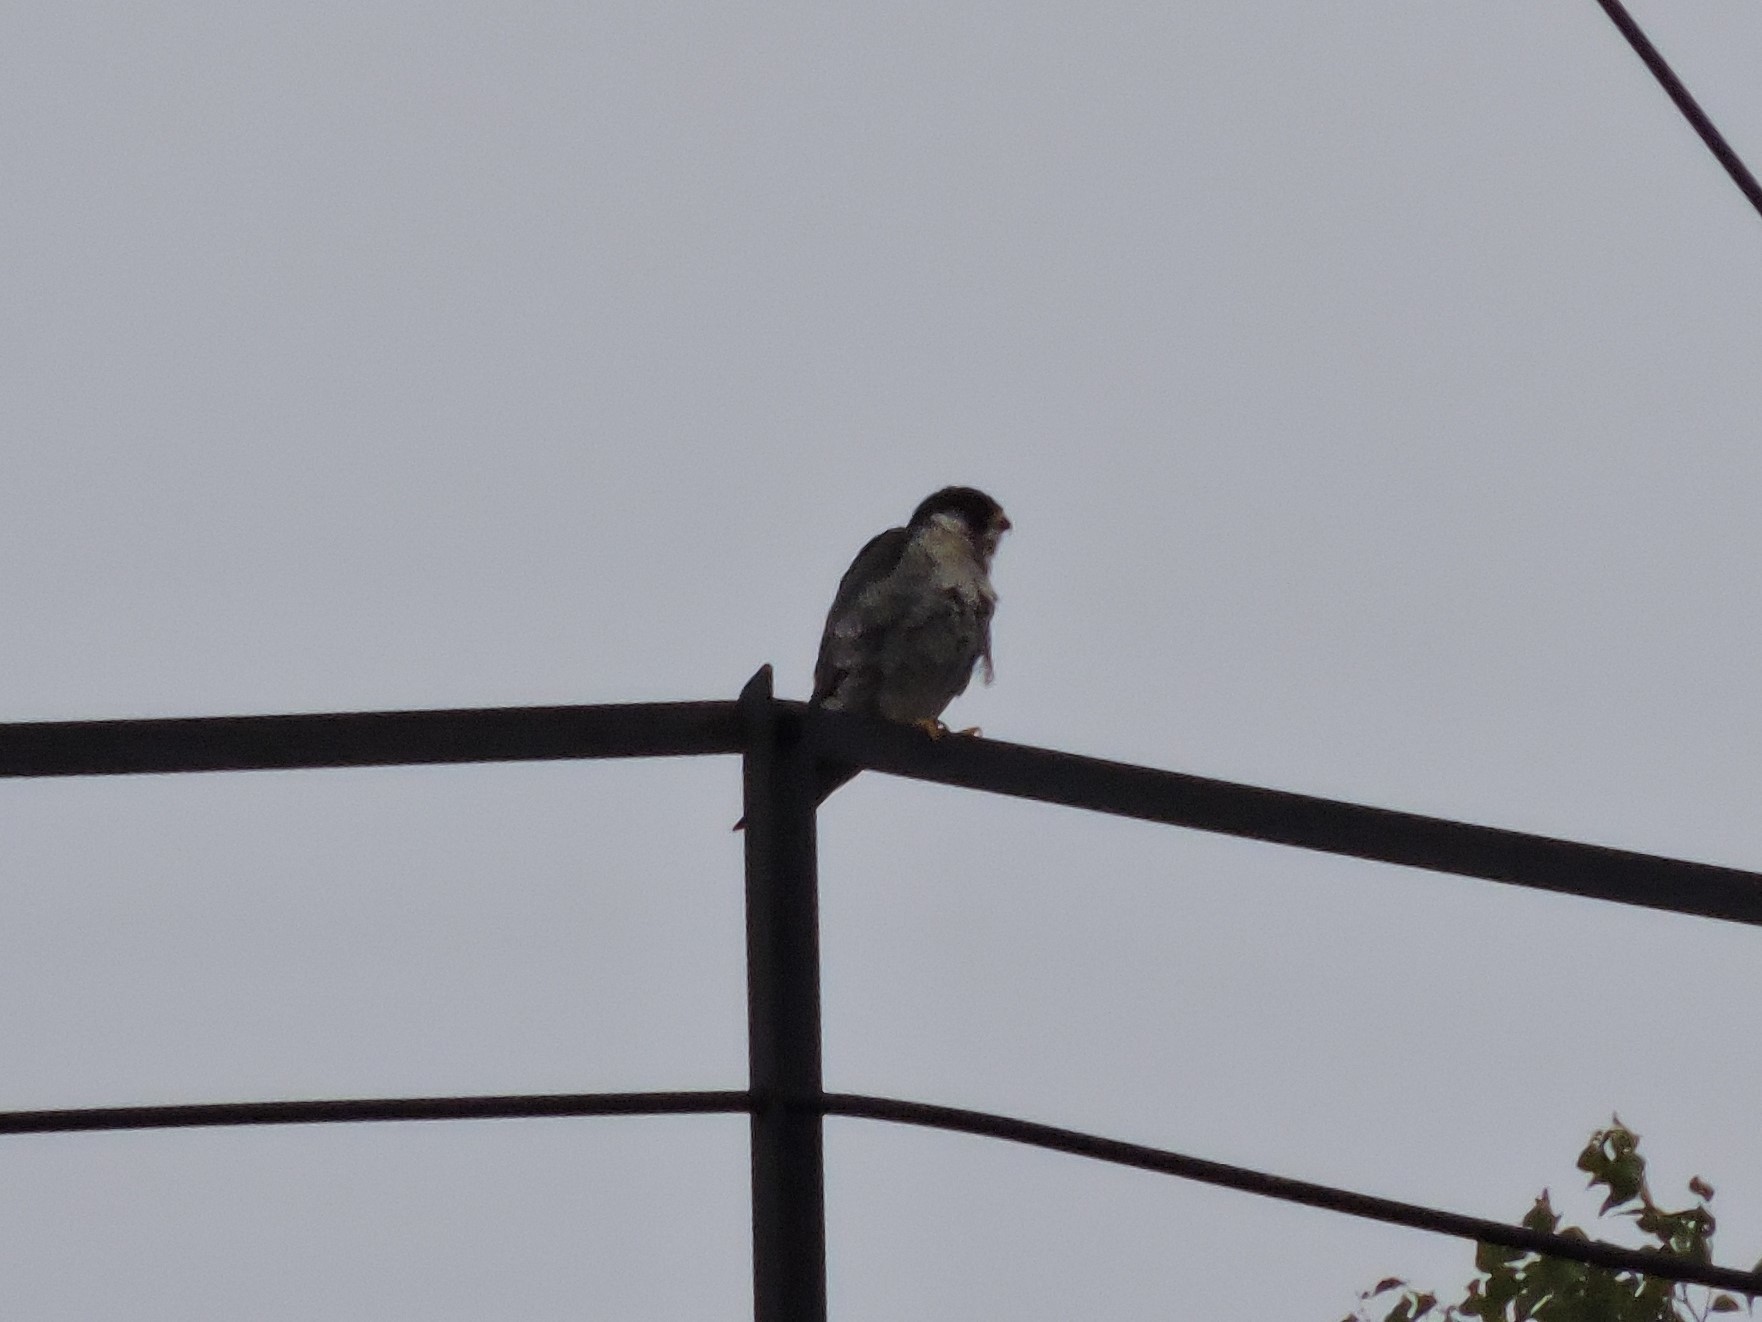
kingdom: Animalia
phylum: Chordata
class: Aves
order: Falconiformes
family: Falconidae
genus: Falco
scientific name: Falco peregrinus
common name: Peregrine falcon
